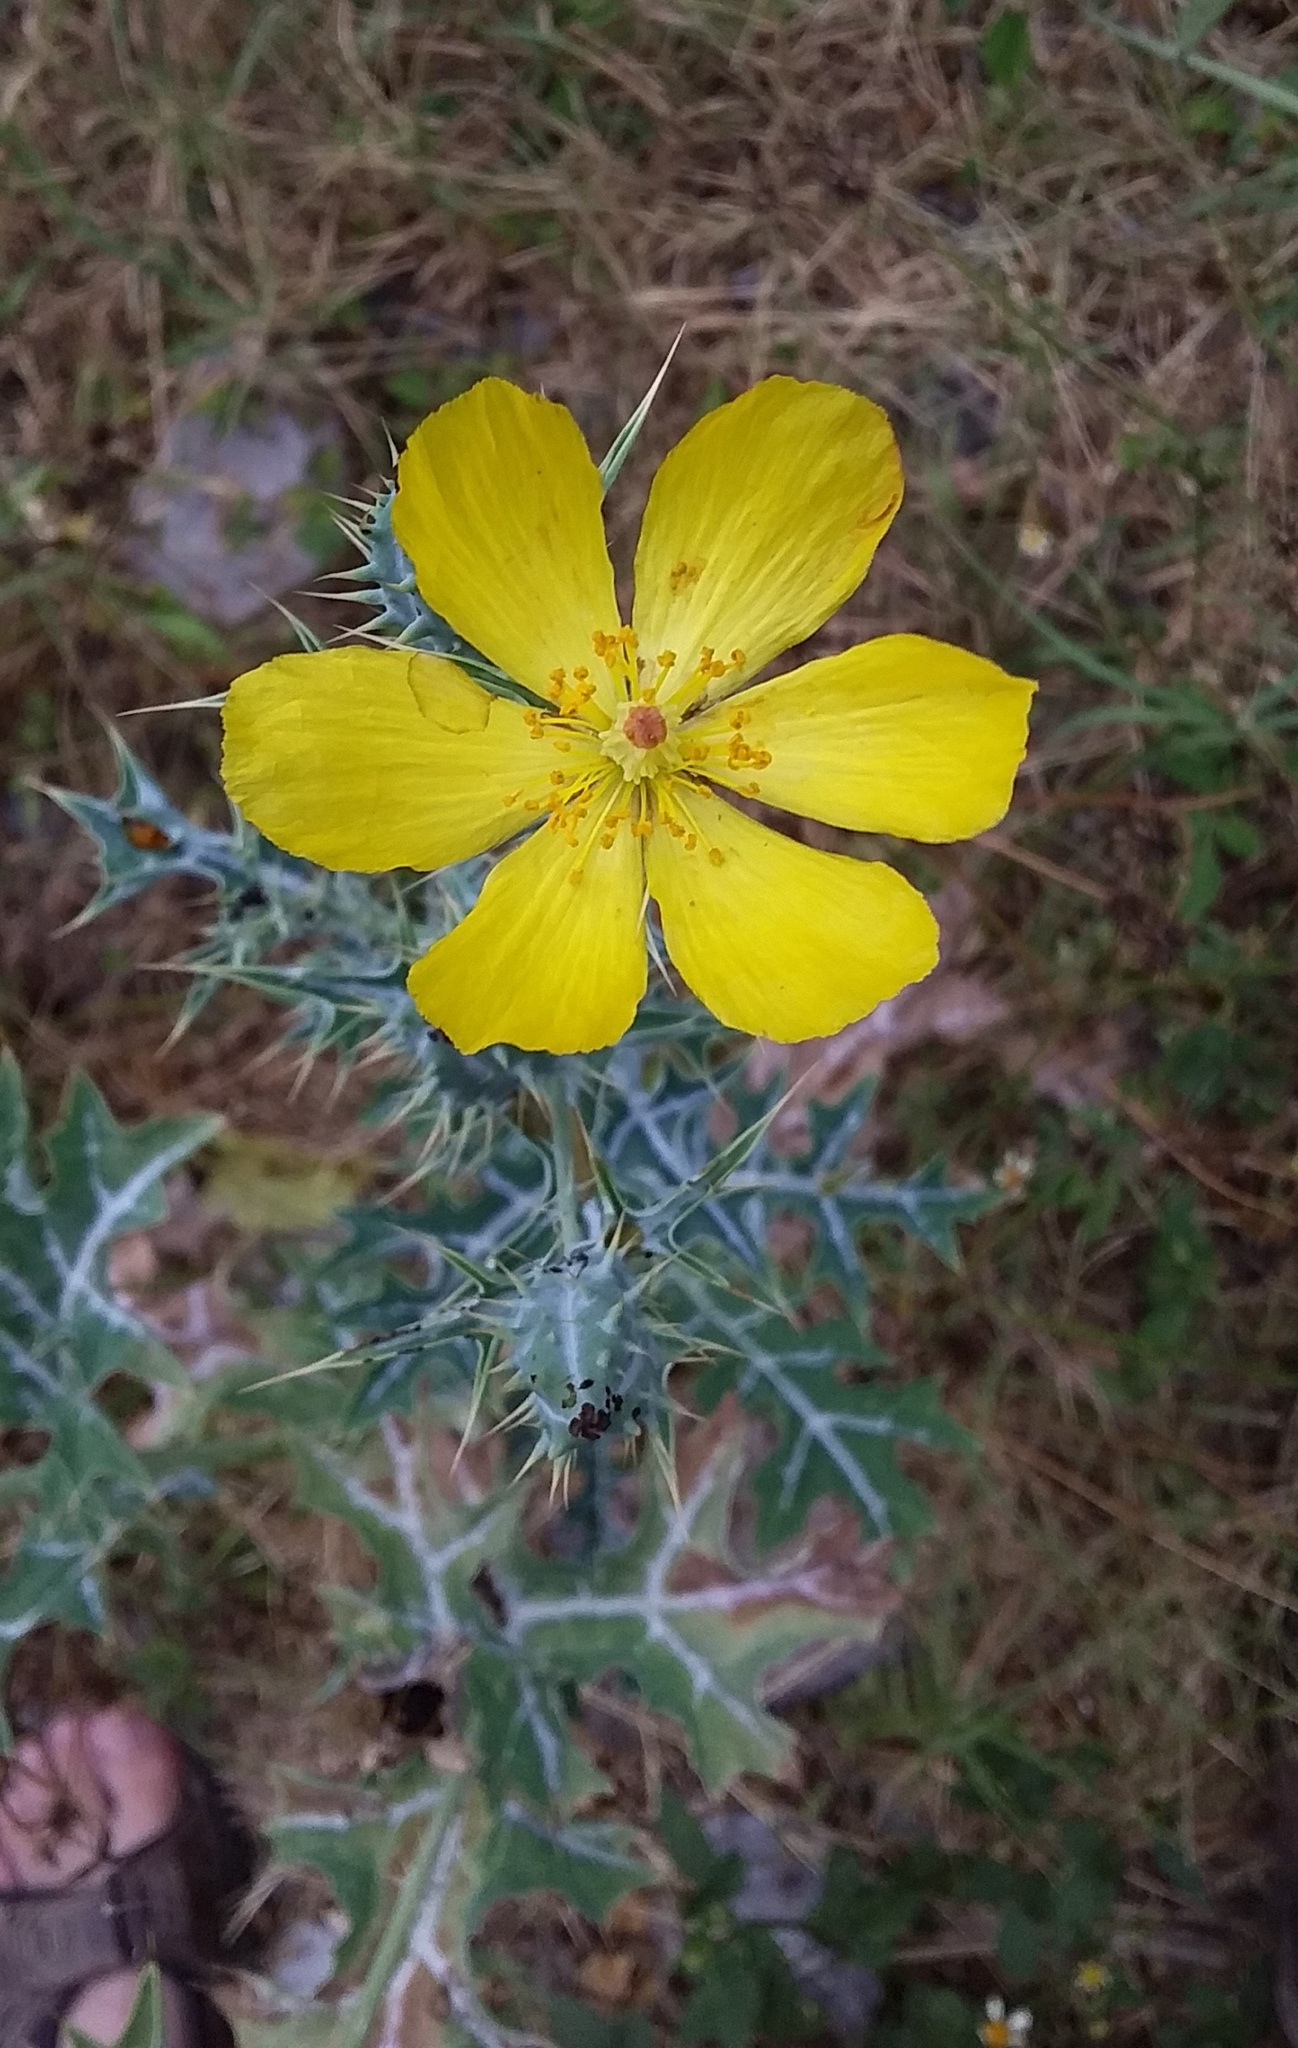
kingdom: Plantae
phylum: Tracheophyta
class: Magnoliopsida
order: Ranunculales
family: Papaveraceae
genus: Argemone
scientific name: Argemone mexicana
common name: Mexican poppy
